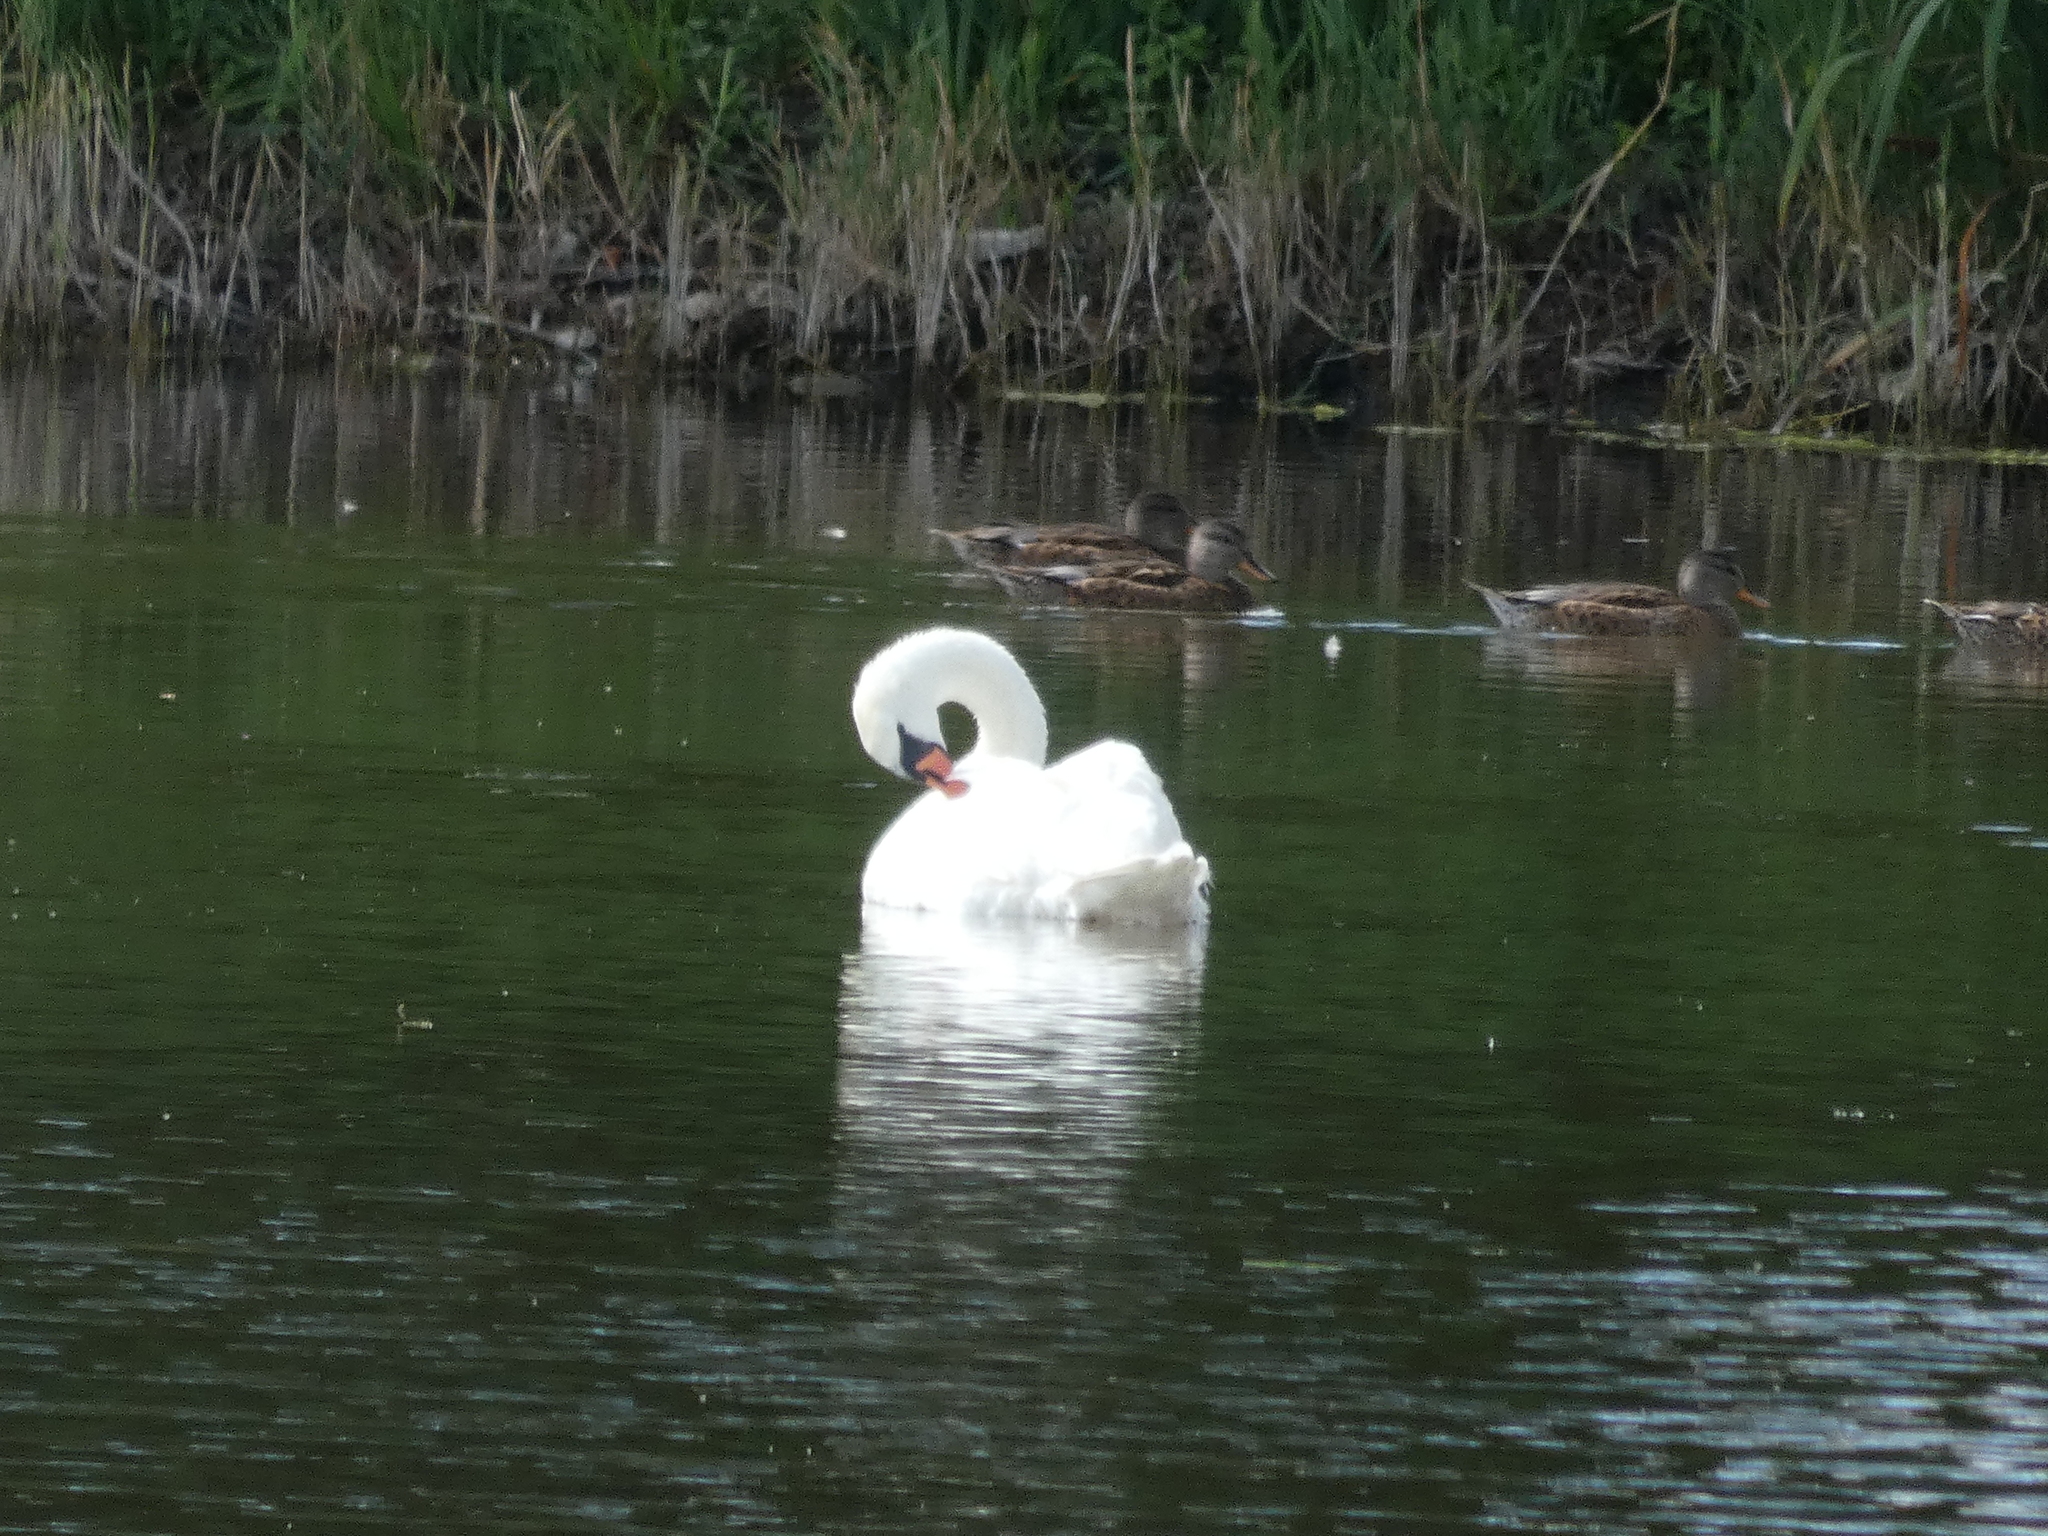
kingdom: Animalia
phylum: Chordata
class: Aves
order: Anseriformes
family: Anatidae
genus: Cygnus
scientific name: Cygnus olor
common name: Mute swan
